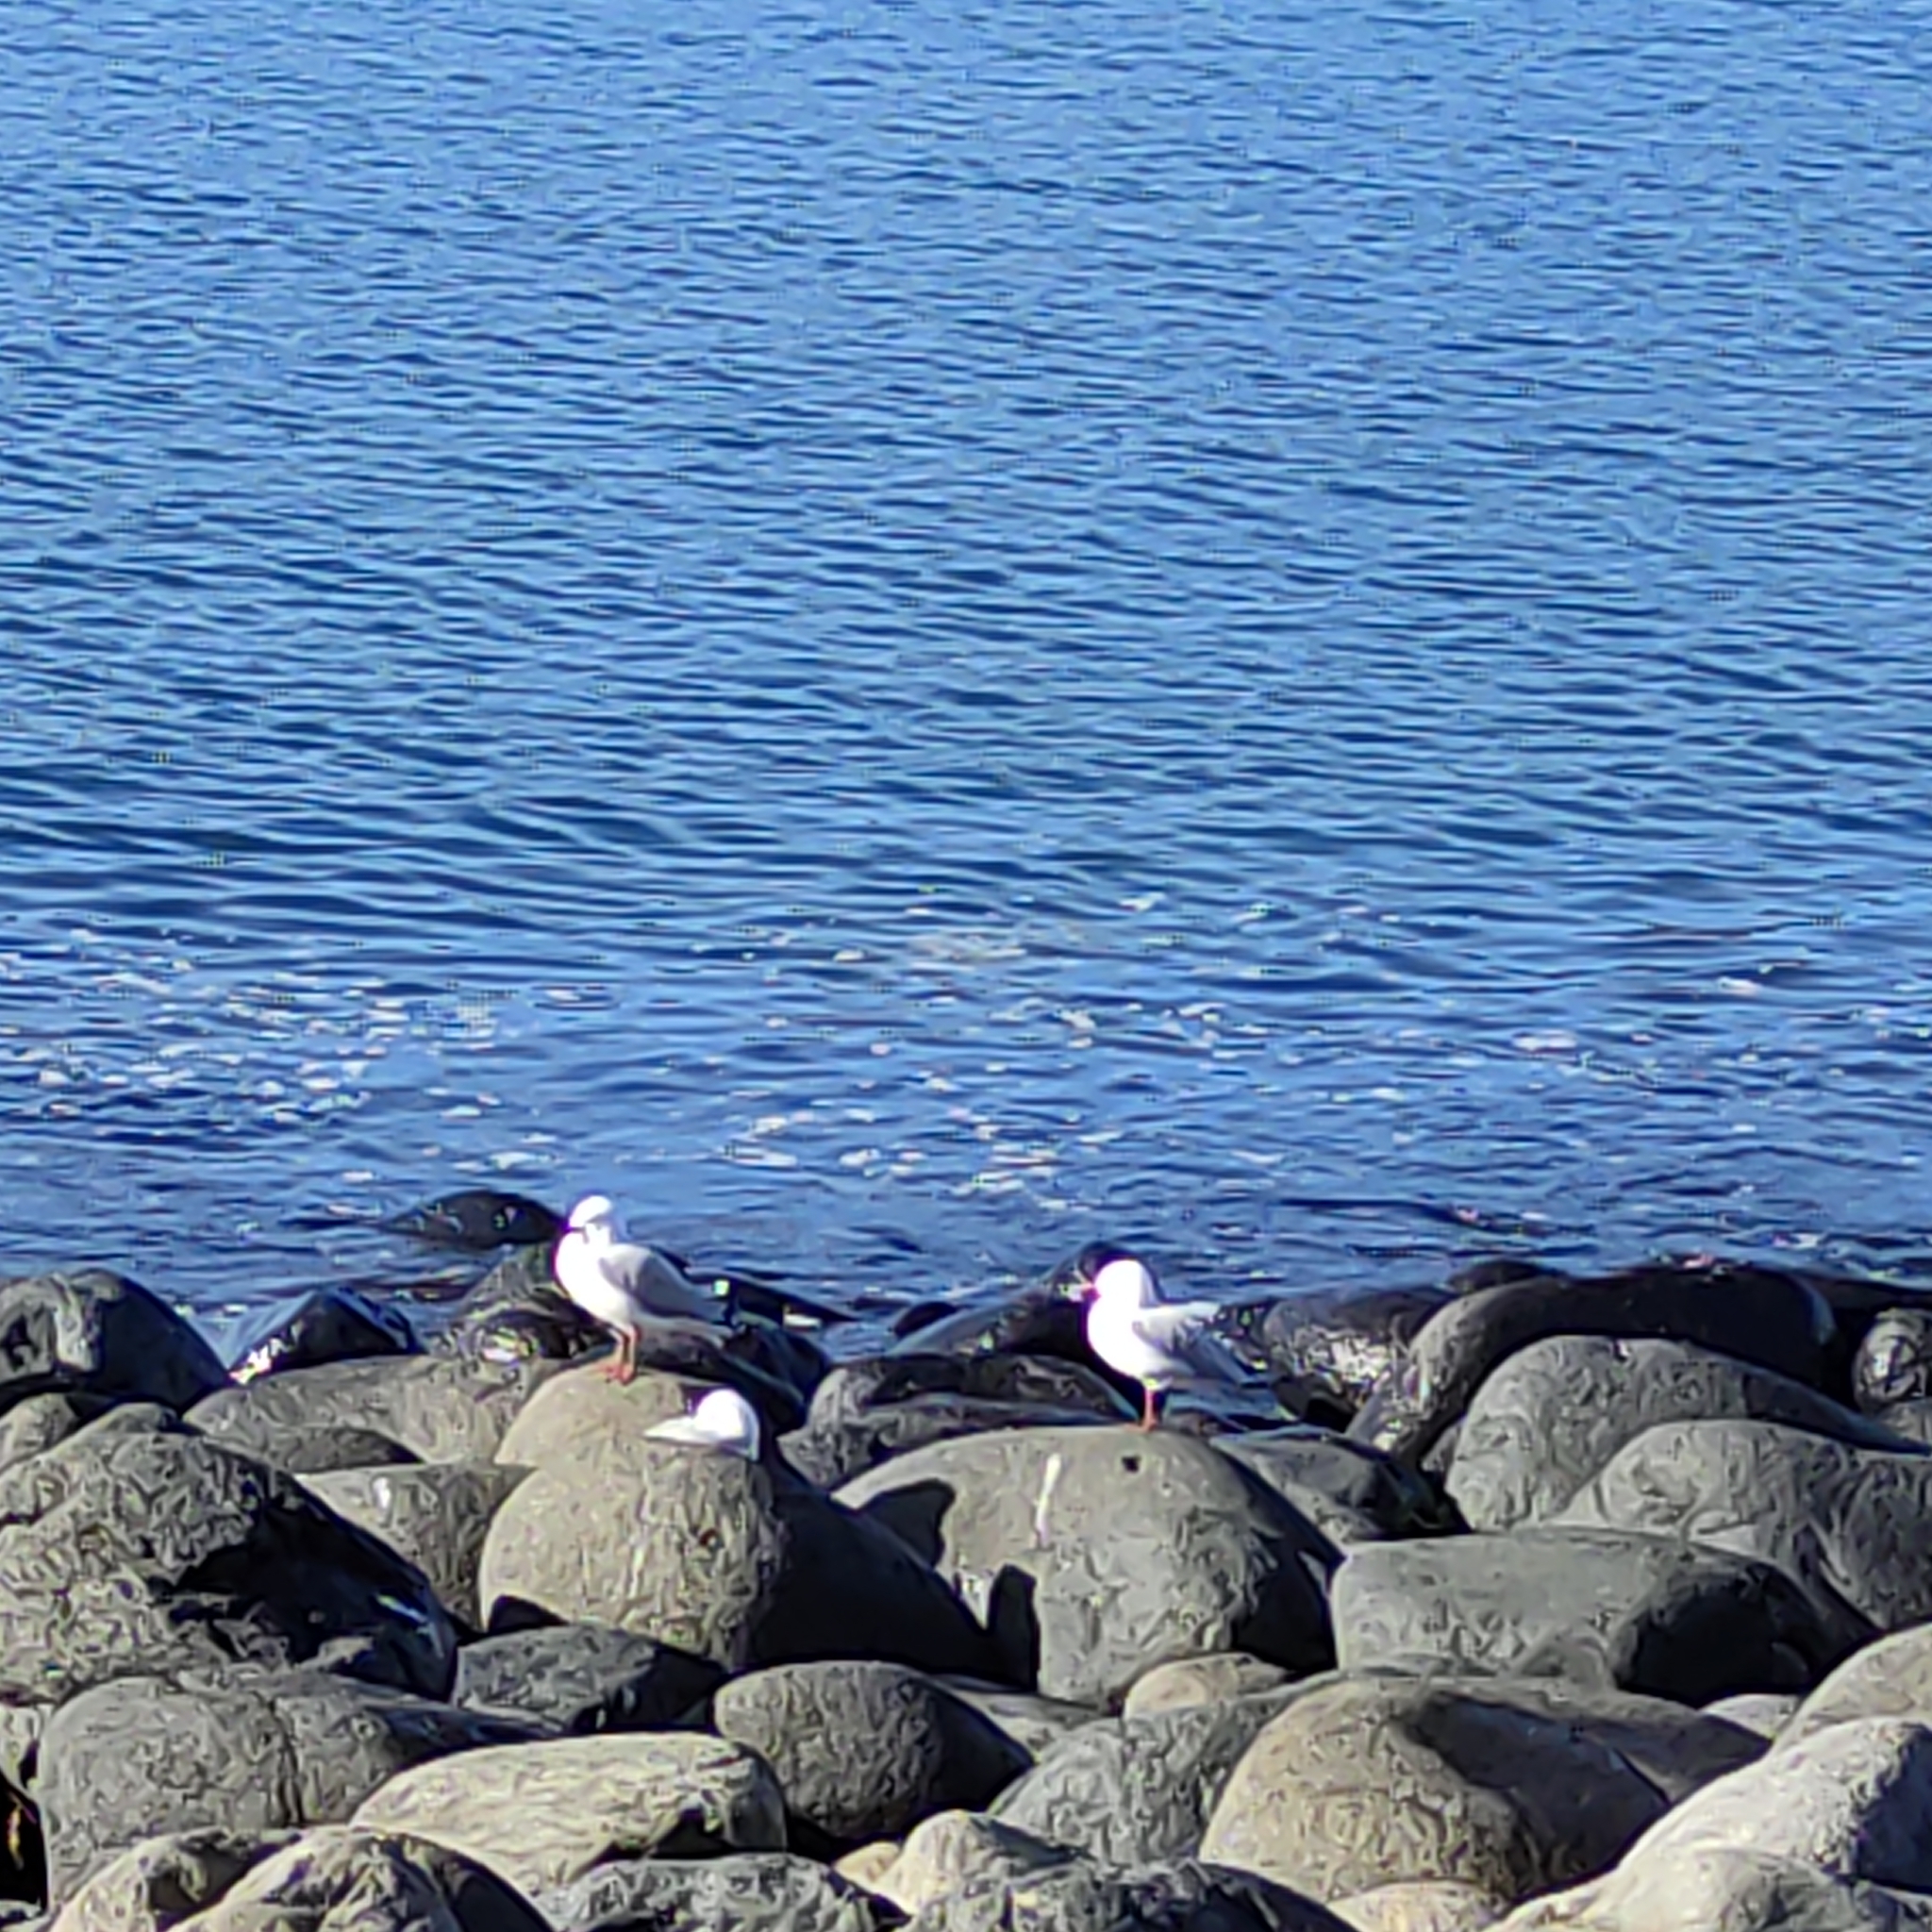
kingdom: Animalia
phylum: Chordata
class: Aves
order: Charadriiformes
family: Laridae
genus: Chroicocephalus
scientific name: Chroicocephalus novaehollandiae
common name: Silver gull
